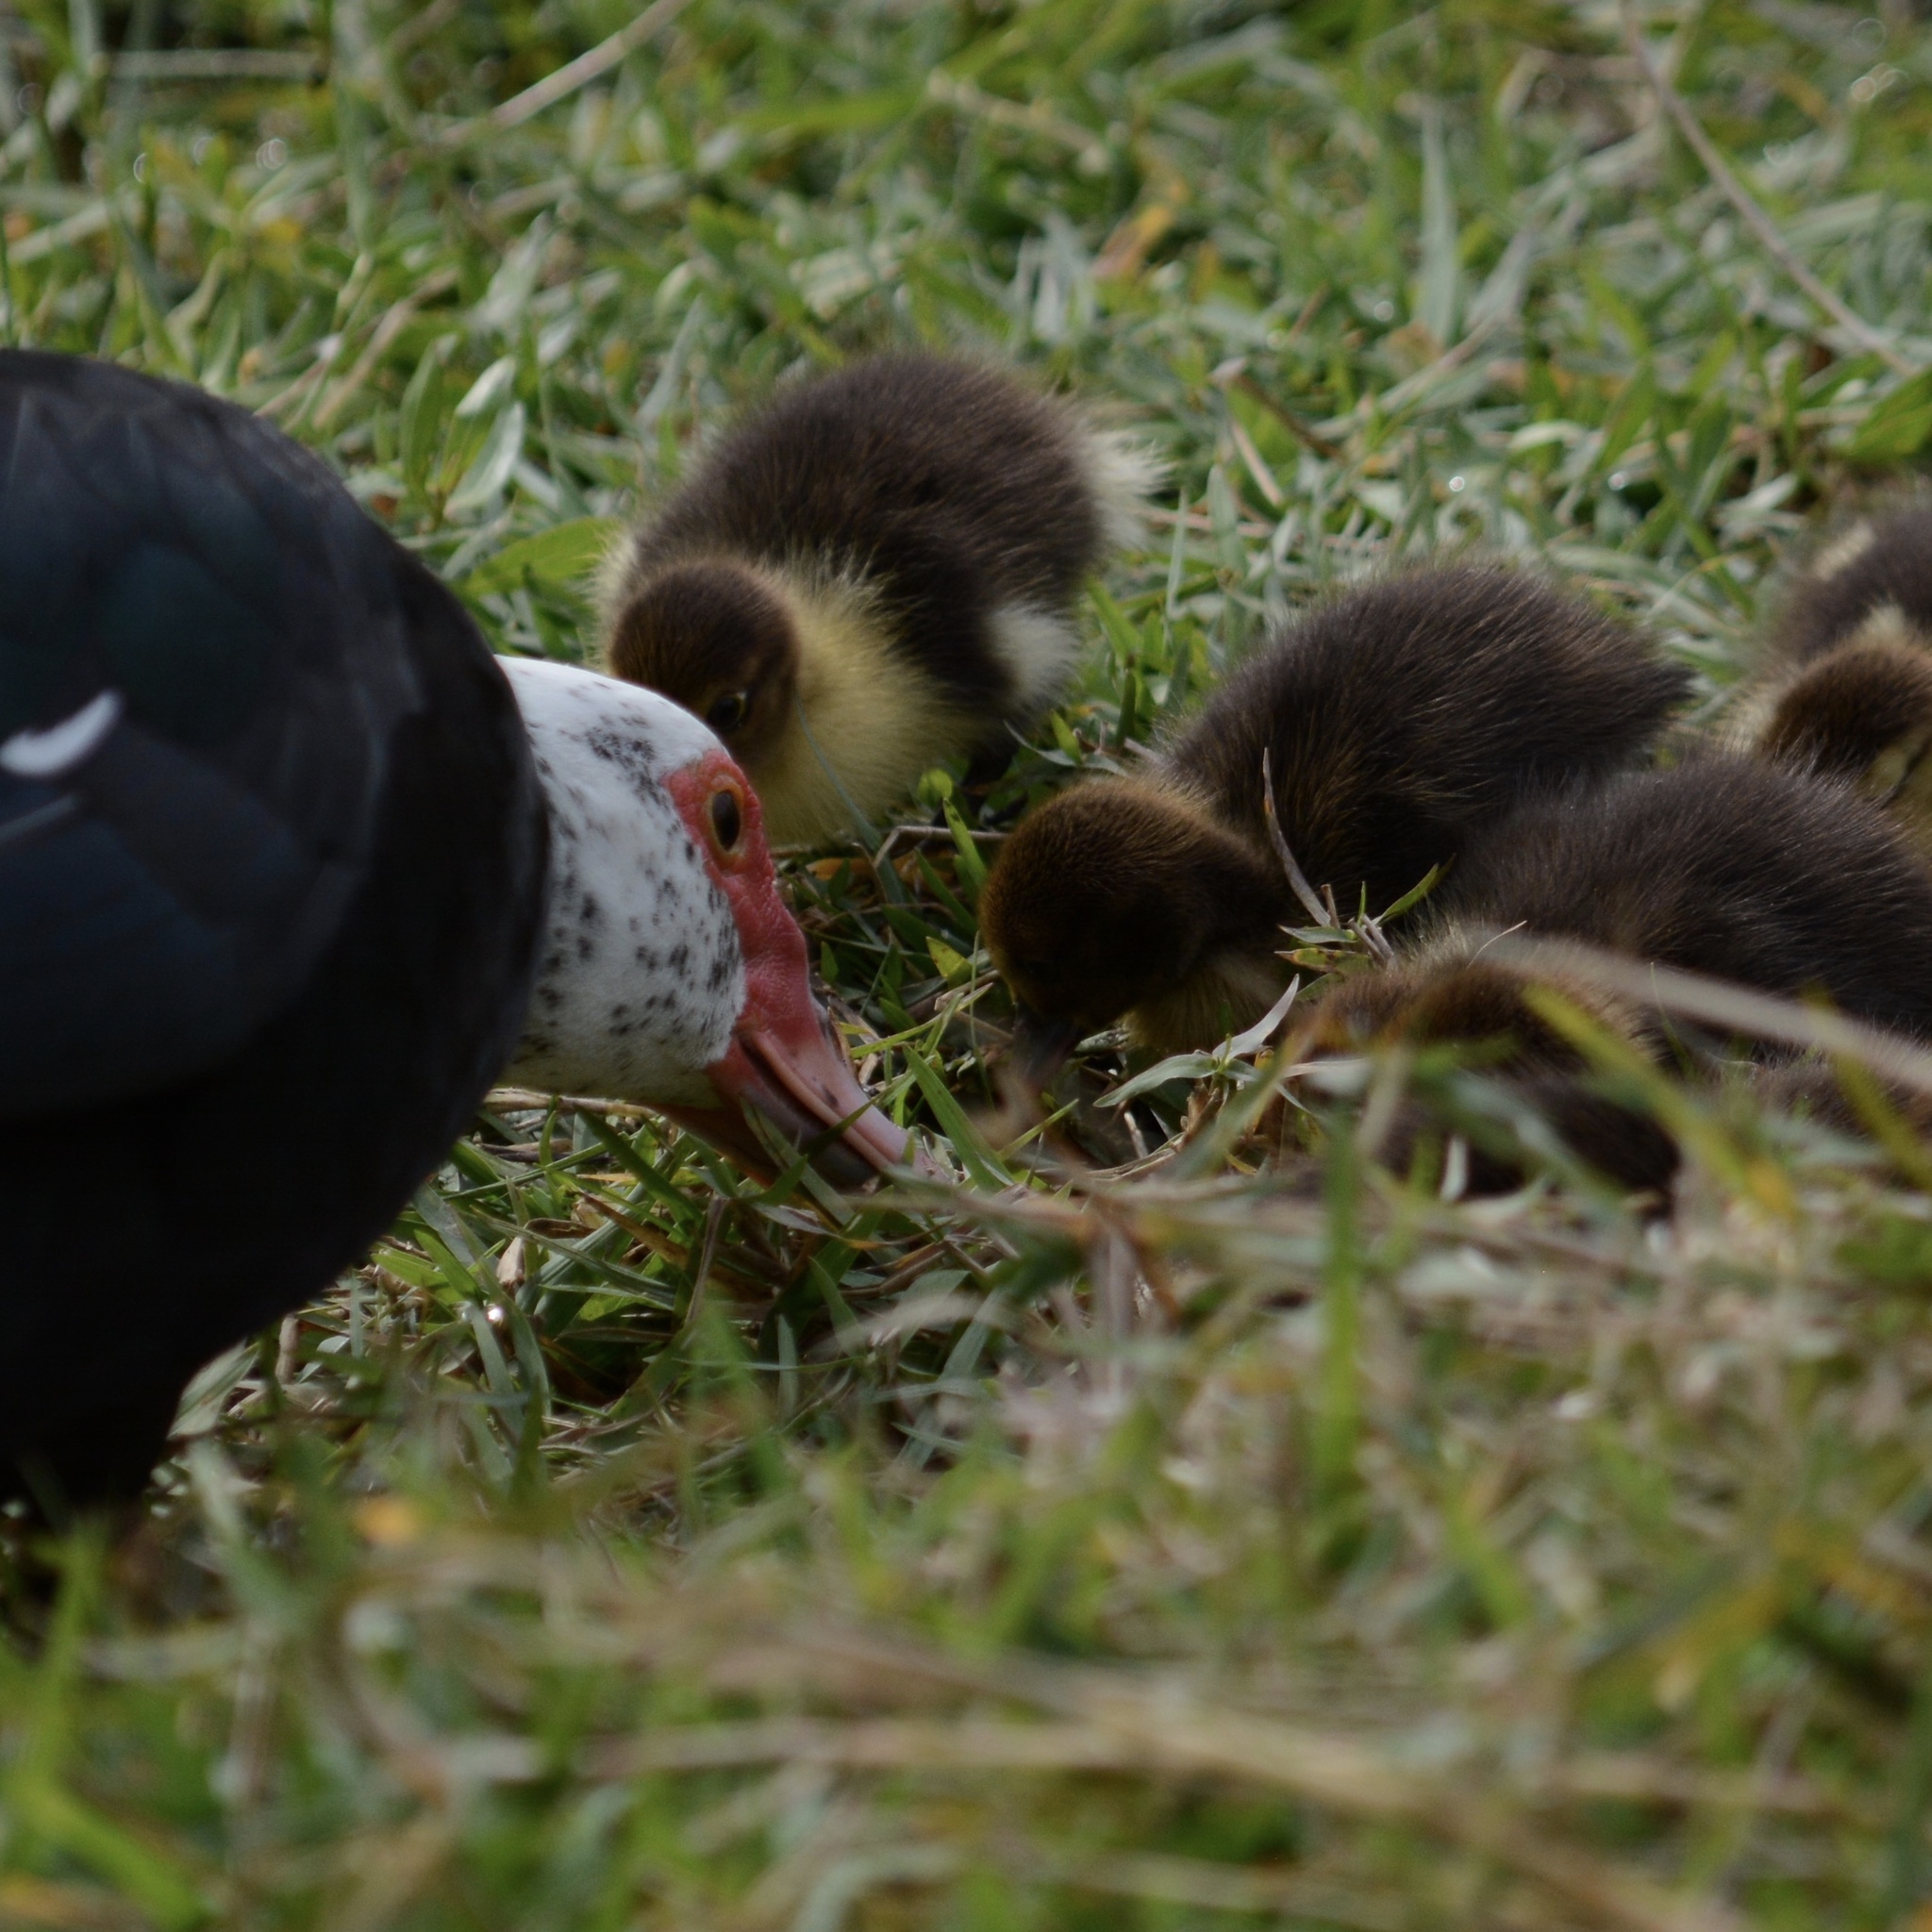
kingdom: Animalia
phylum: Chordata
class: Aves
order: Anseriformes
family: Anatidae
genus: Cairina
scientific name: Cairina moschata
